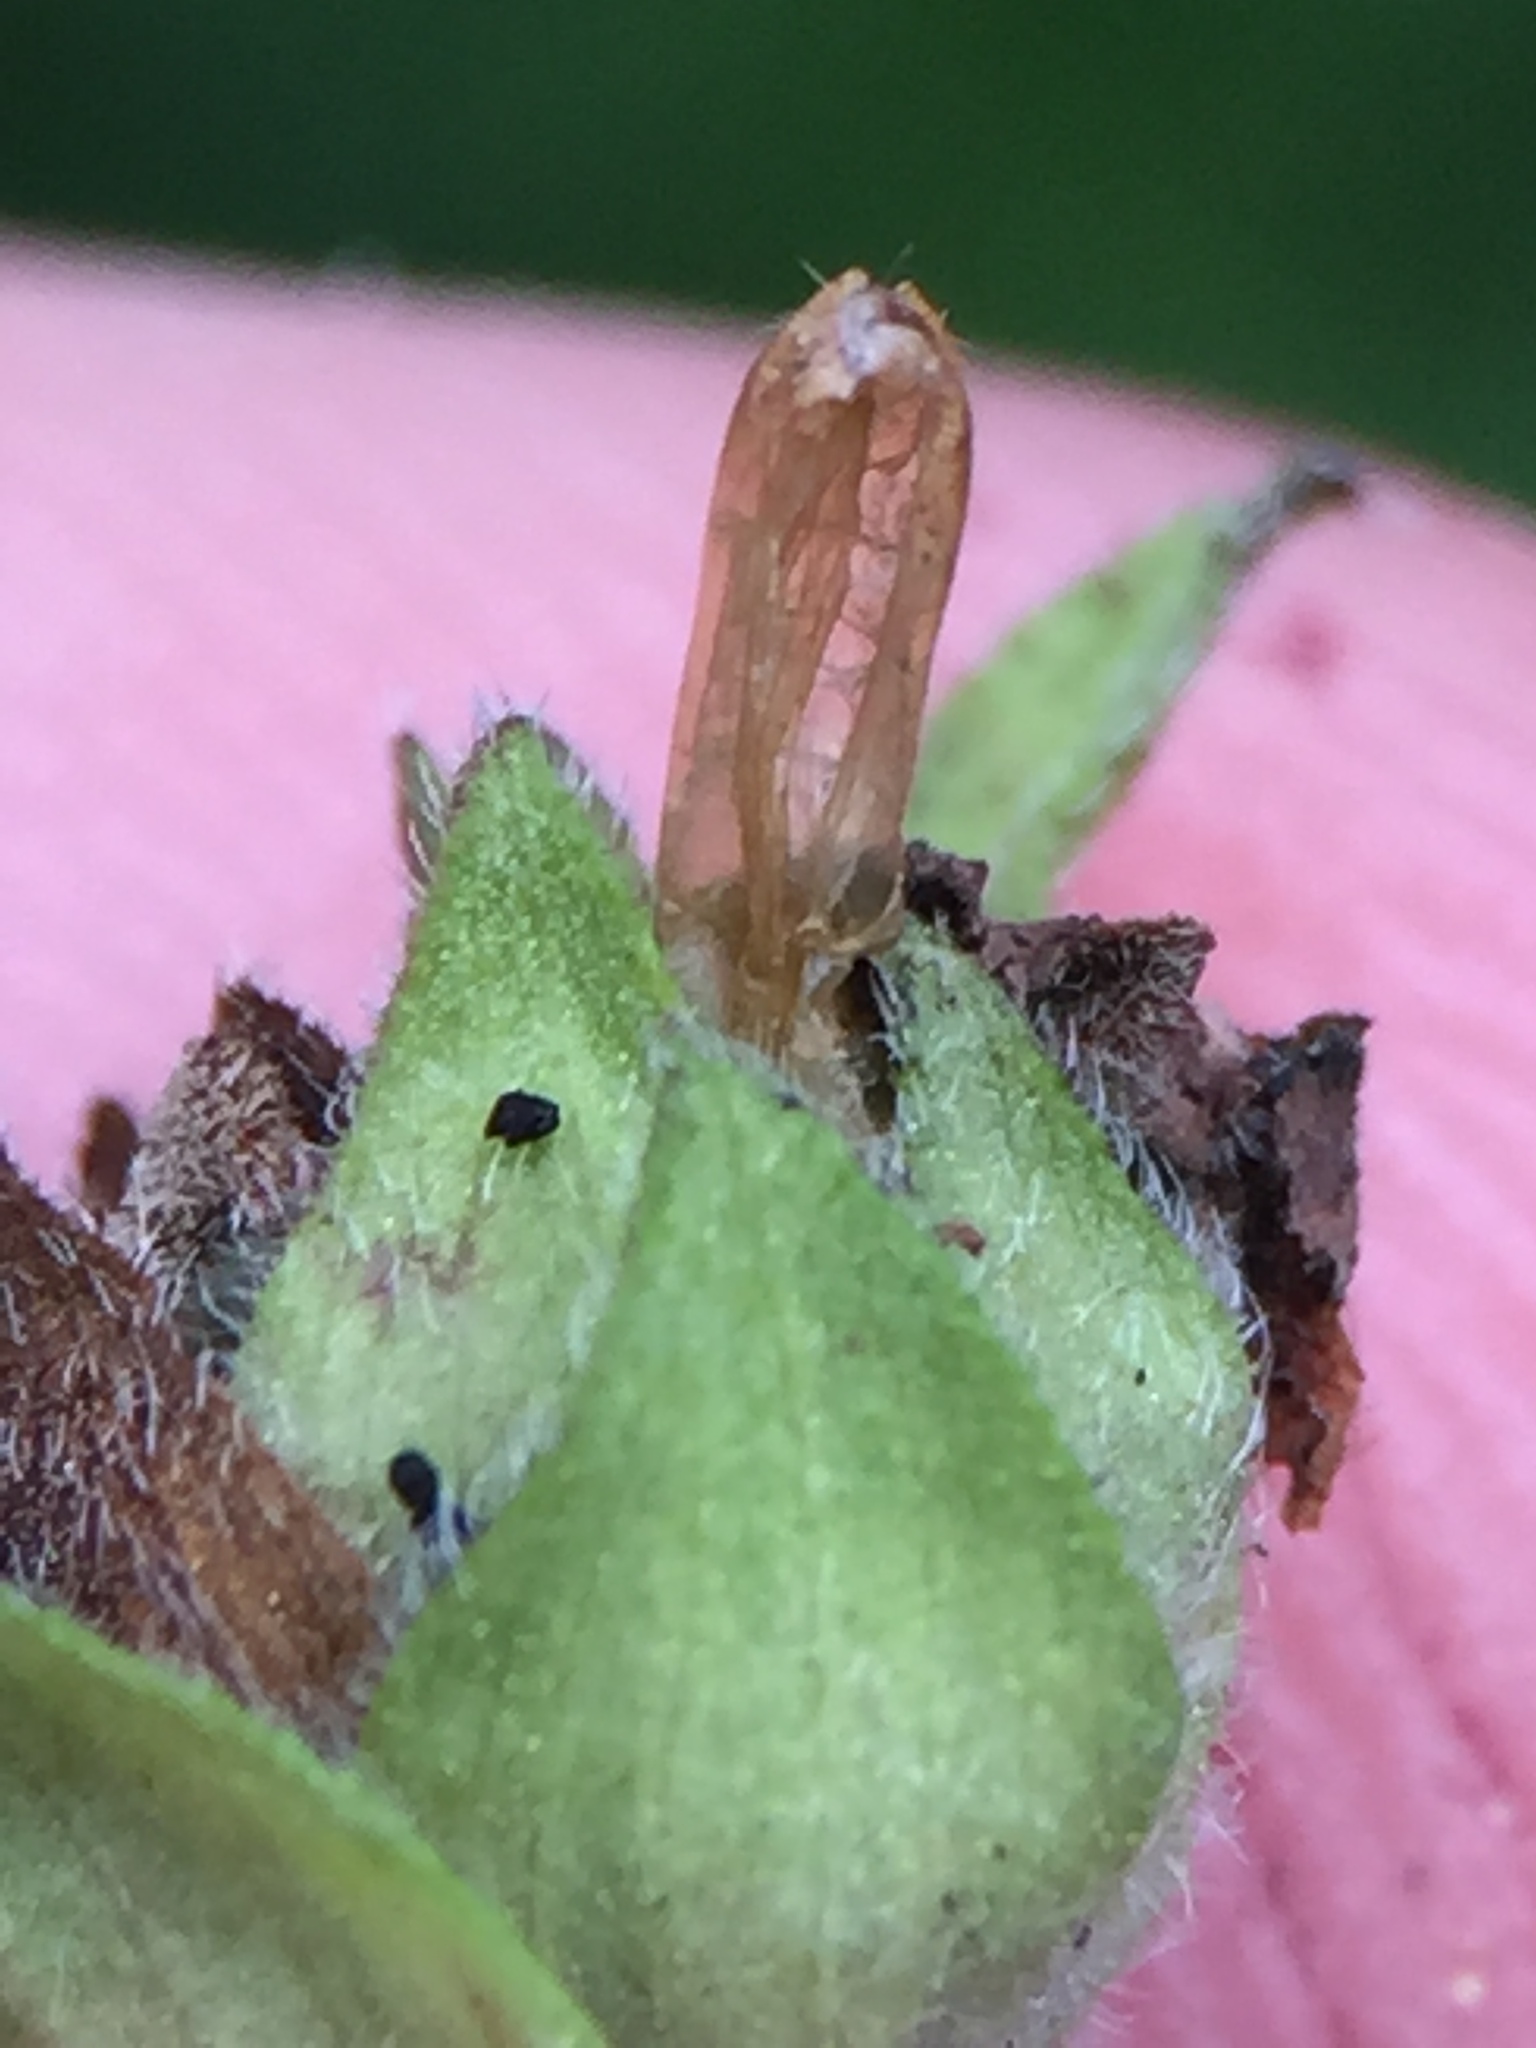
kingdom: Animalia
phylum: Arthropoda
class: Insecta
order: Lepidoptera
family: Pterophoridae
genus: Lantanophaga
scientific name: Lantanophaga pusillidactylus
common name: Moth
